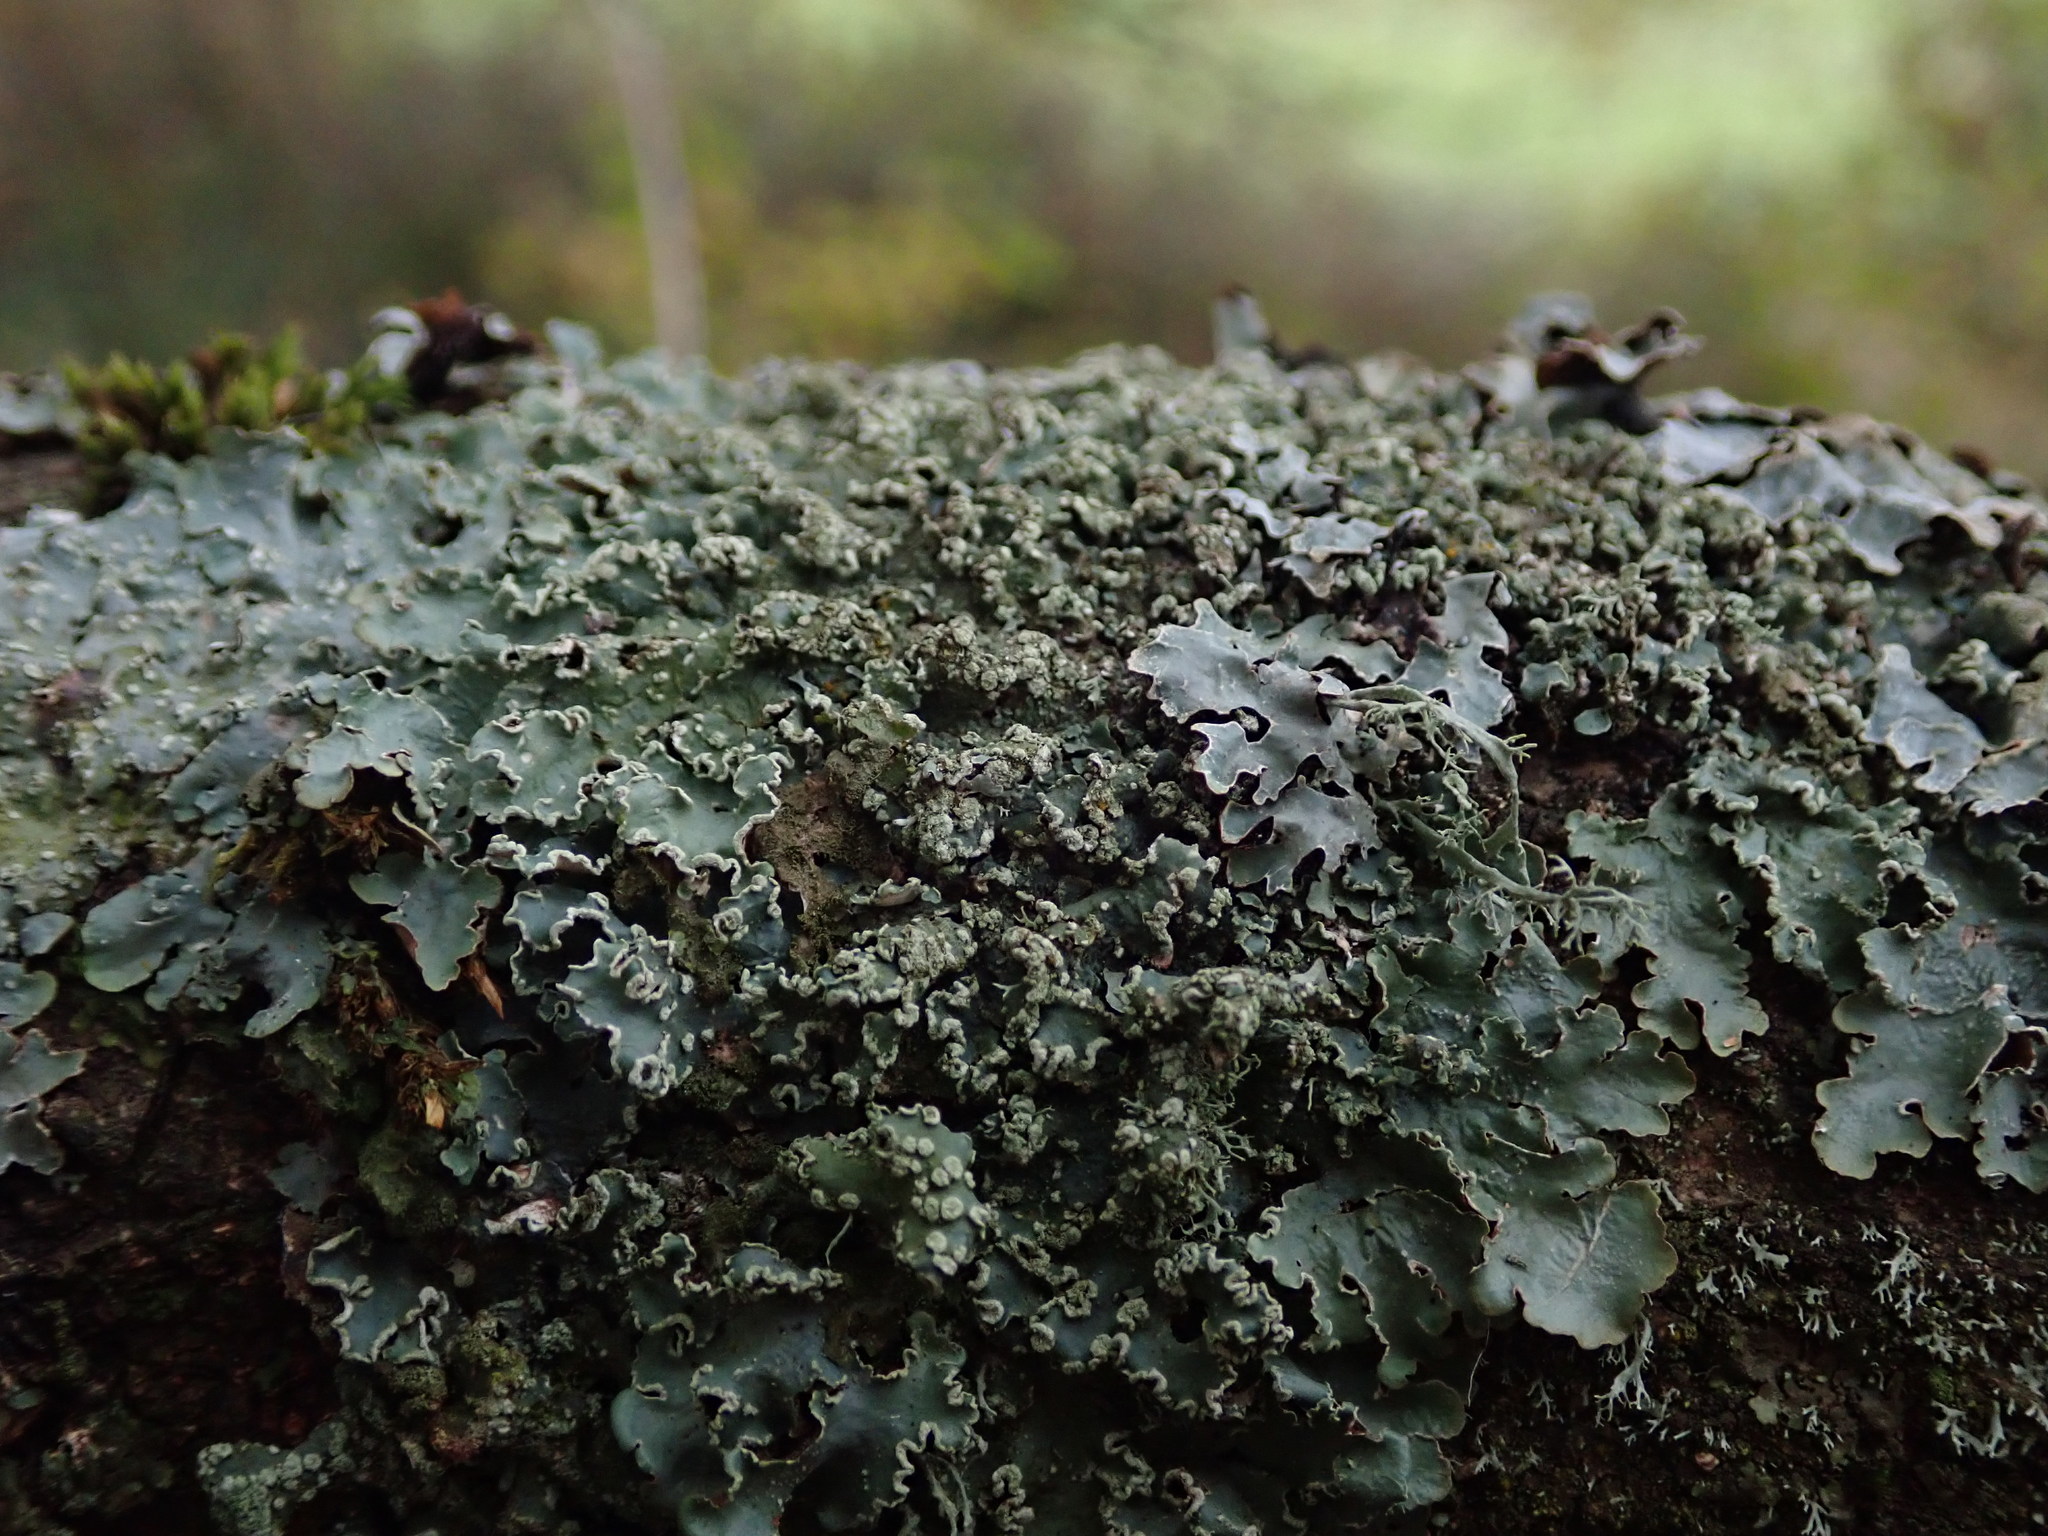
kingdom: Fungi
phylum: Ascomycota
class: Lecanoromycetes
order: Lecanorales
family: Parmeliaceae
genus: Punctelia
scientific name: Punctelia jeckeri
